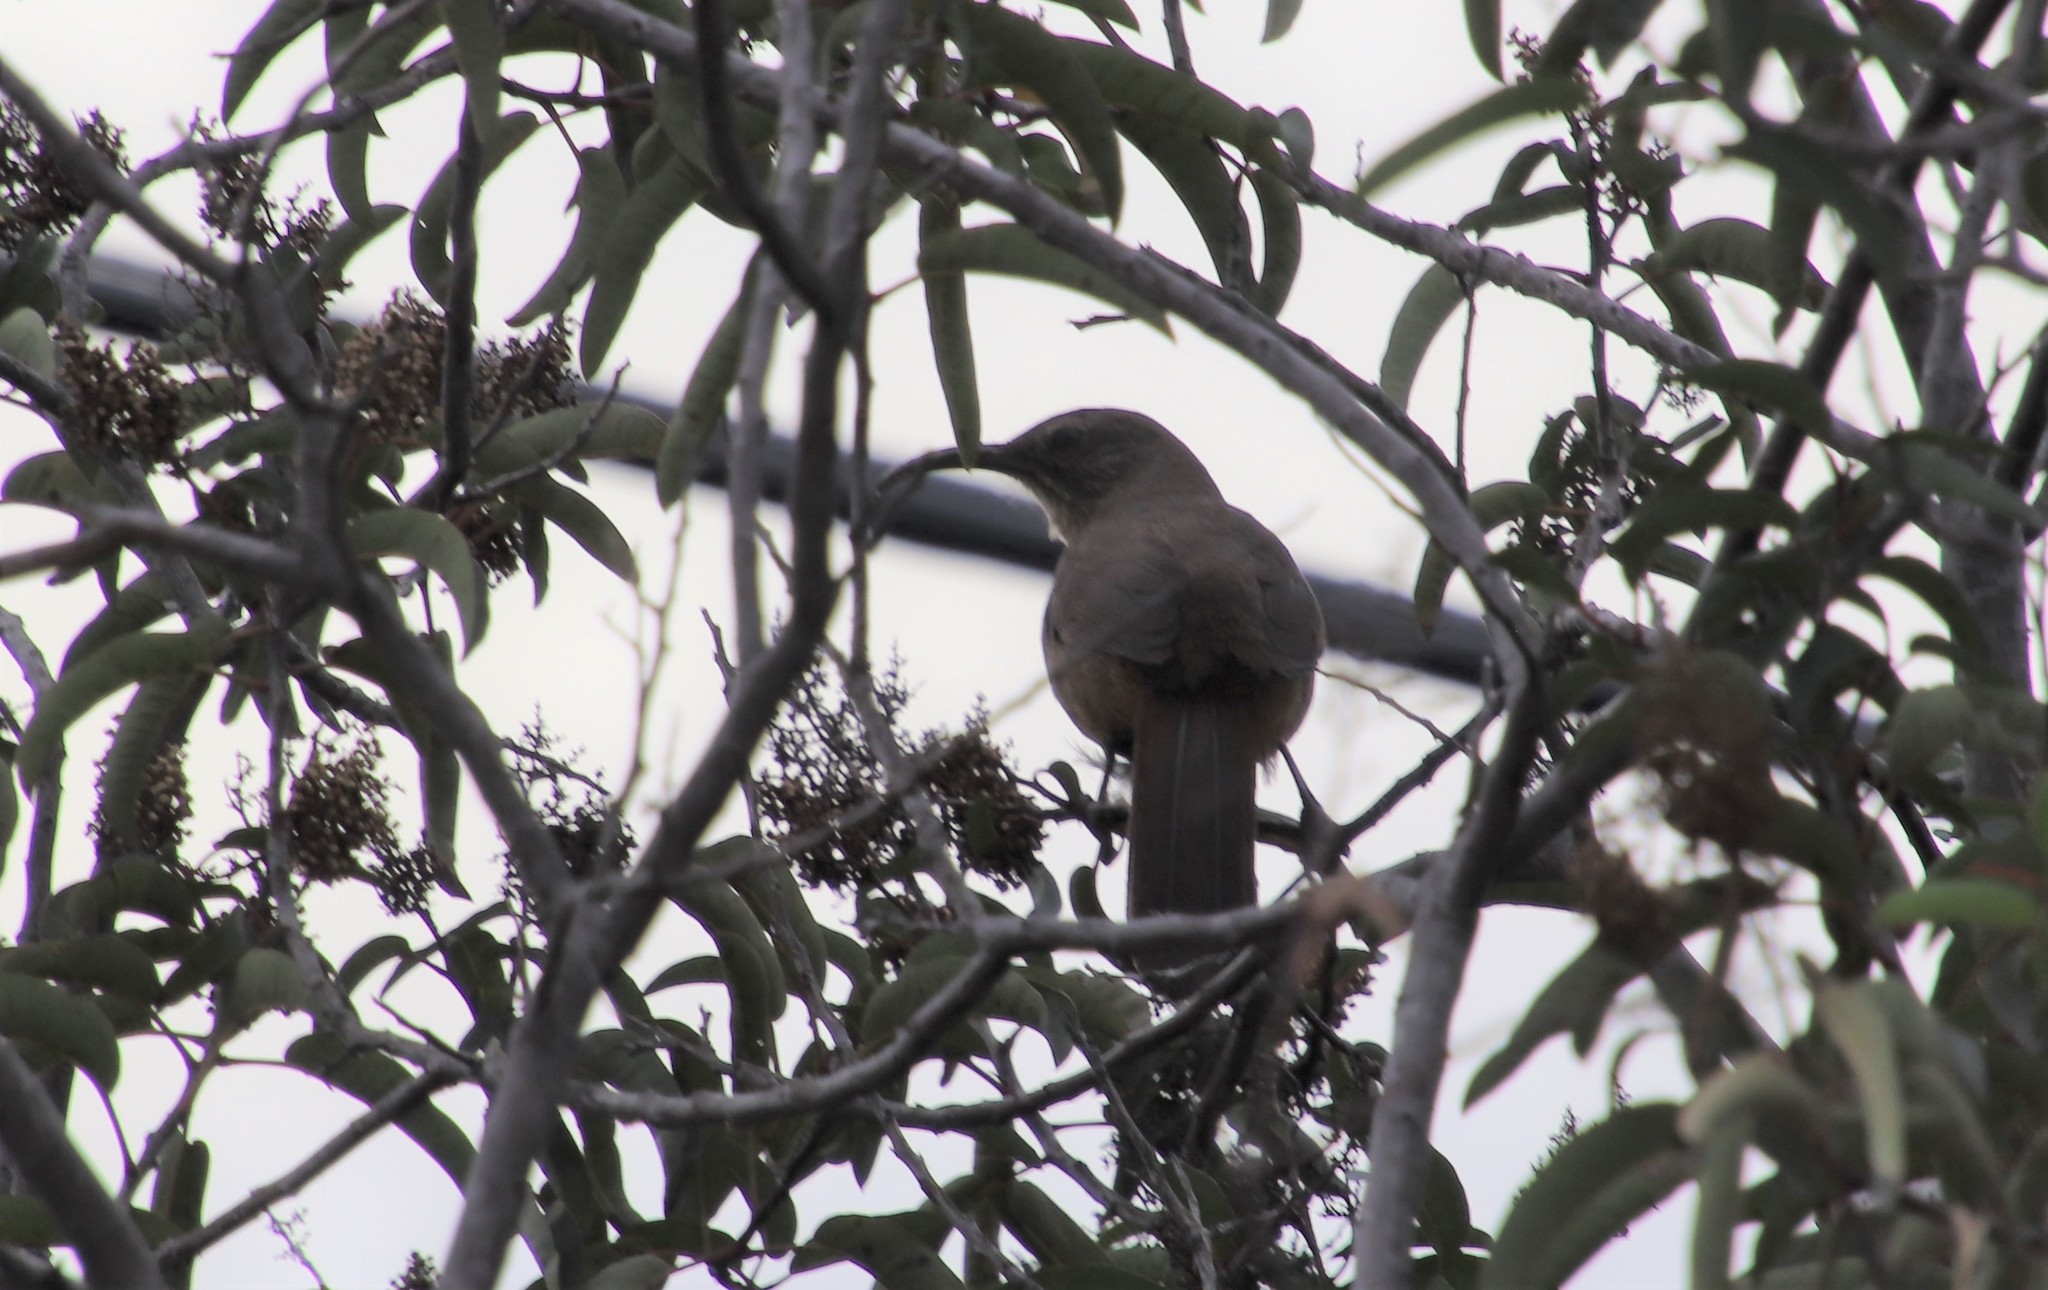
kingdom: Animalia
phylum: Chordata
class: Aves
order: Passeriformes
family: Mimidae
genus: Toxostoma
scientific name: Toxostoma redivivum
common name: California thrasher
